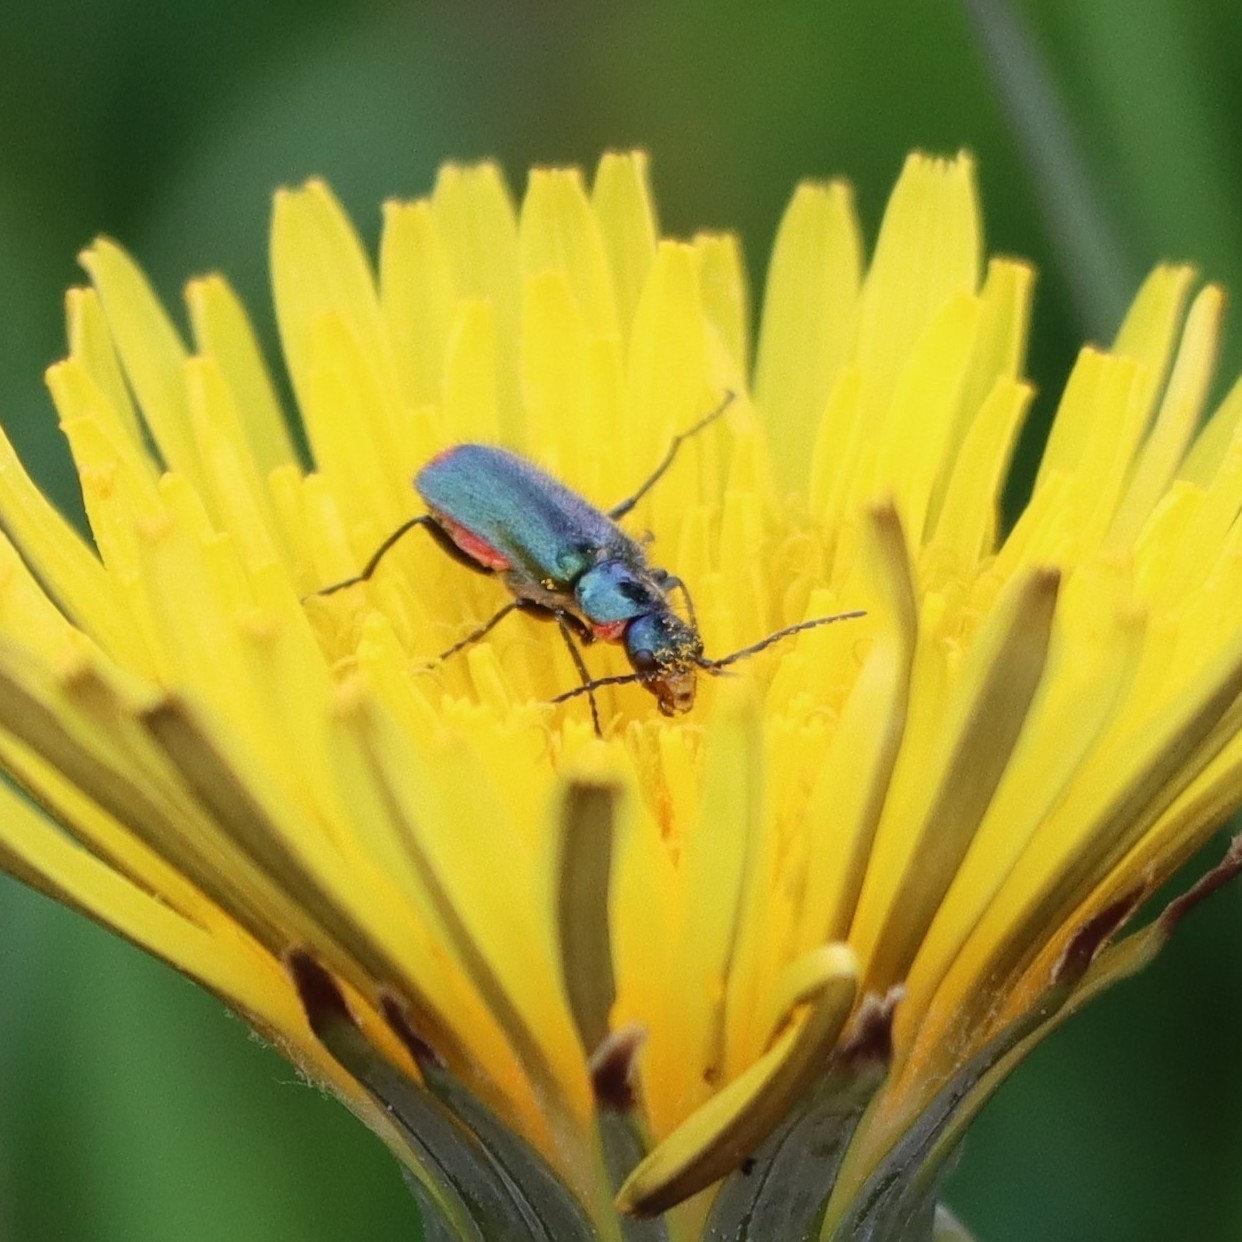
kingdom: Animalia
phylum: Arthropoda
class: Insecta
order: Coleoptera
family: Melyridae
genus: Malachius
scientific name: Malachius bipustulatus
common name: Malachite beetle
